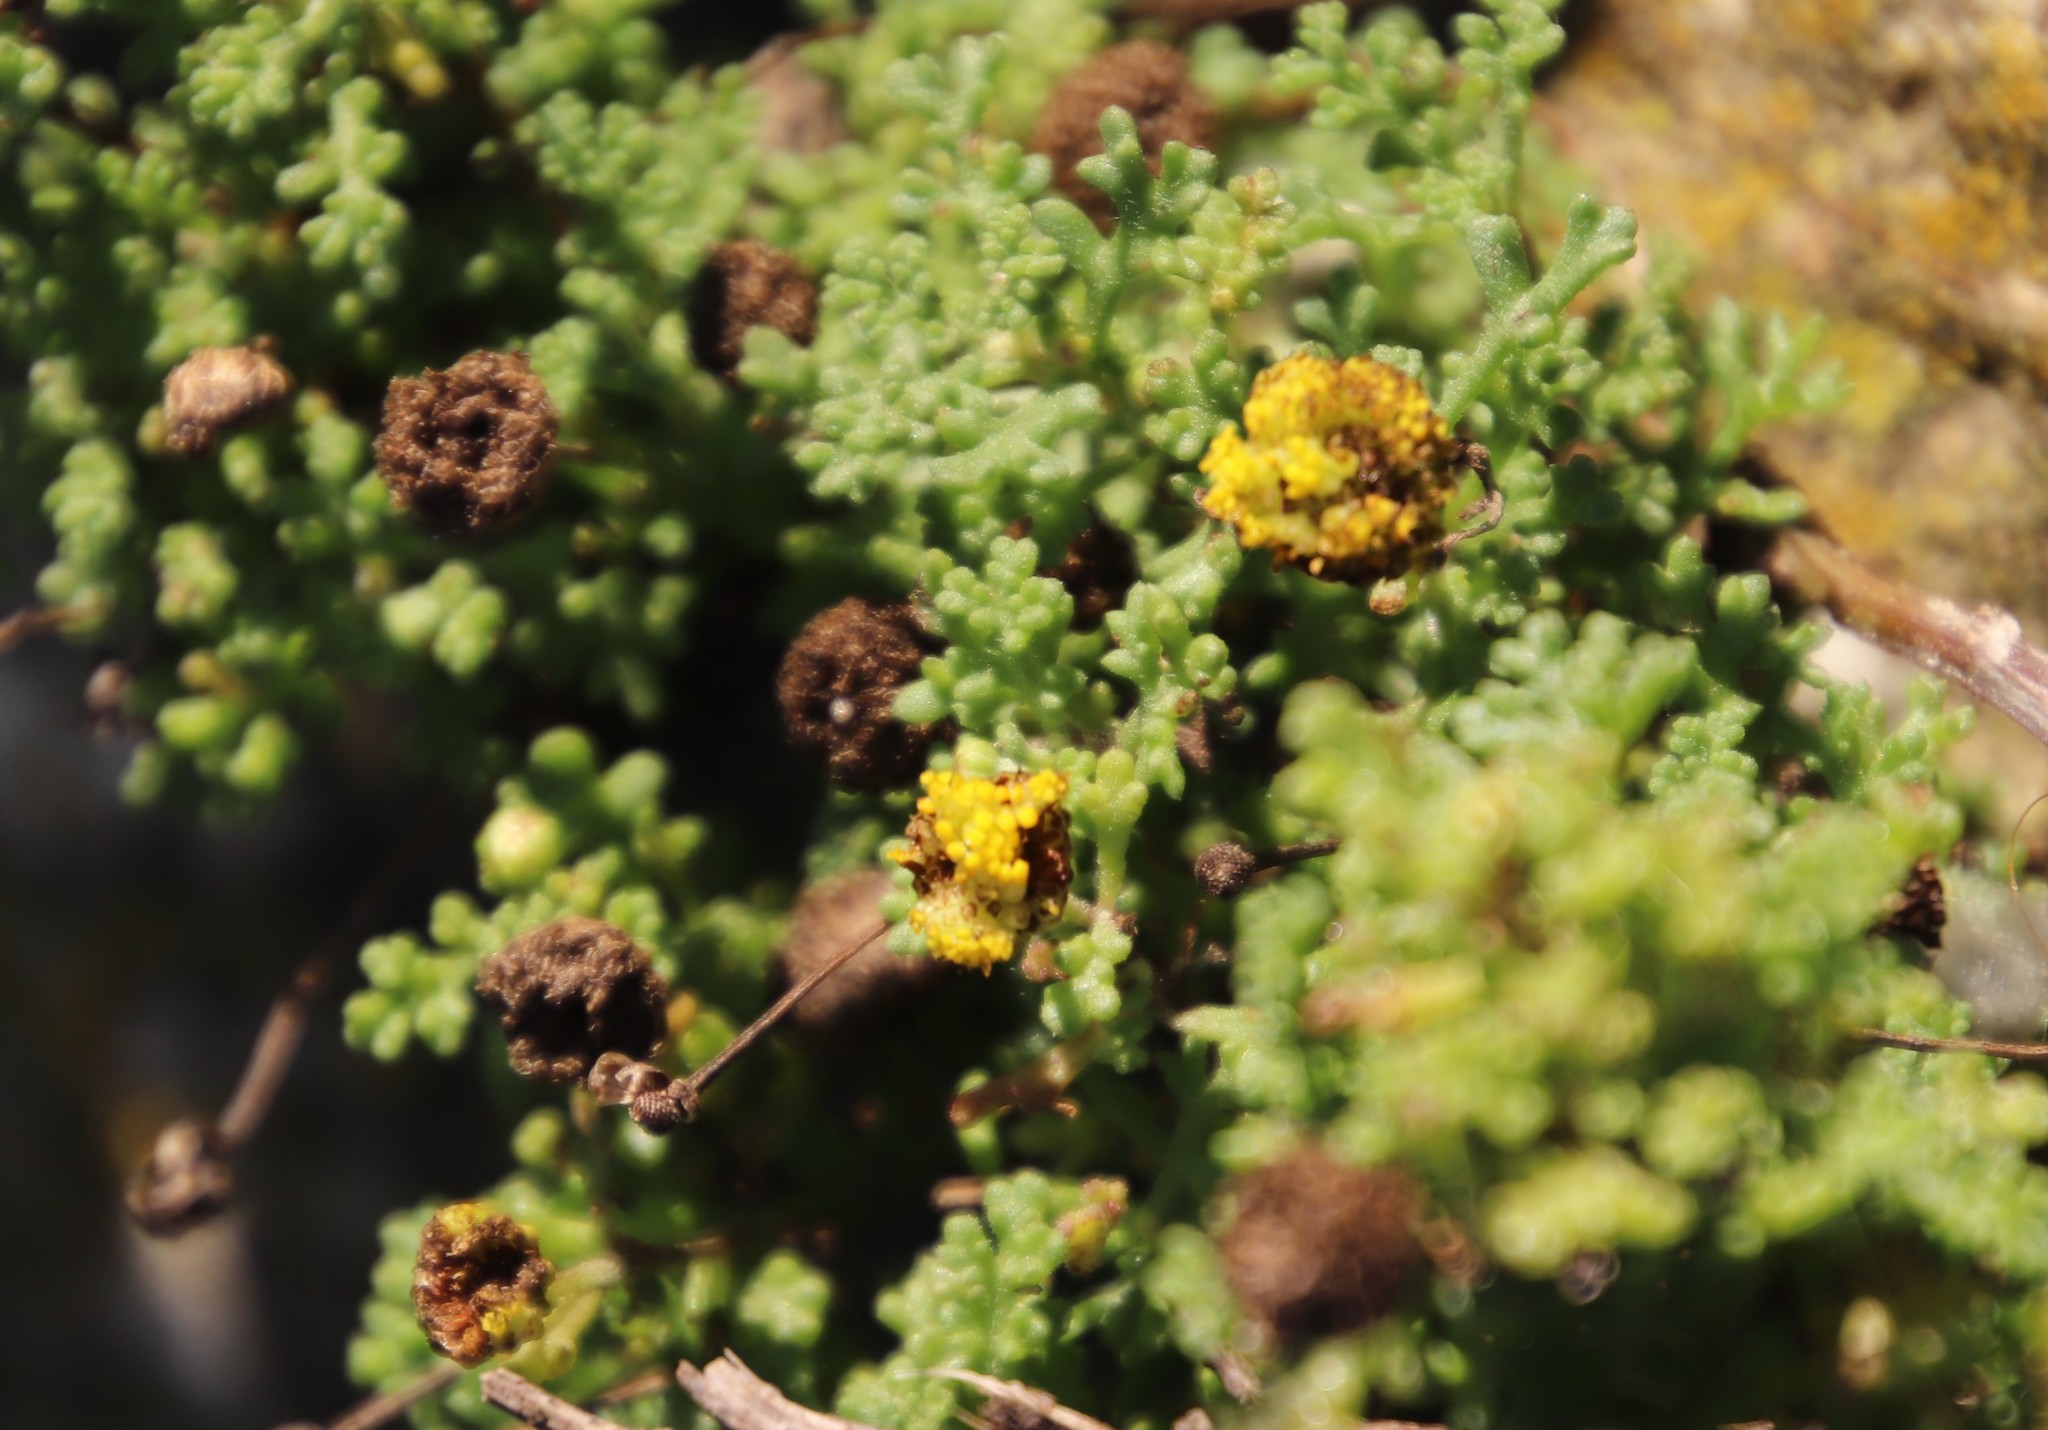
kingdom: Plantae
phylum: Tracheophyta
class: Magnoliopsida
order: Asterales
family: Asteraceae
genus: Oncosiphon
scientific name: Oncosiphon sabulosus
